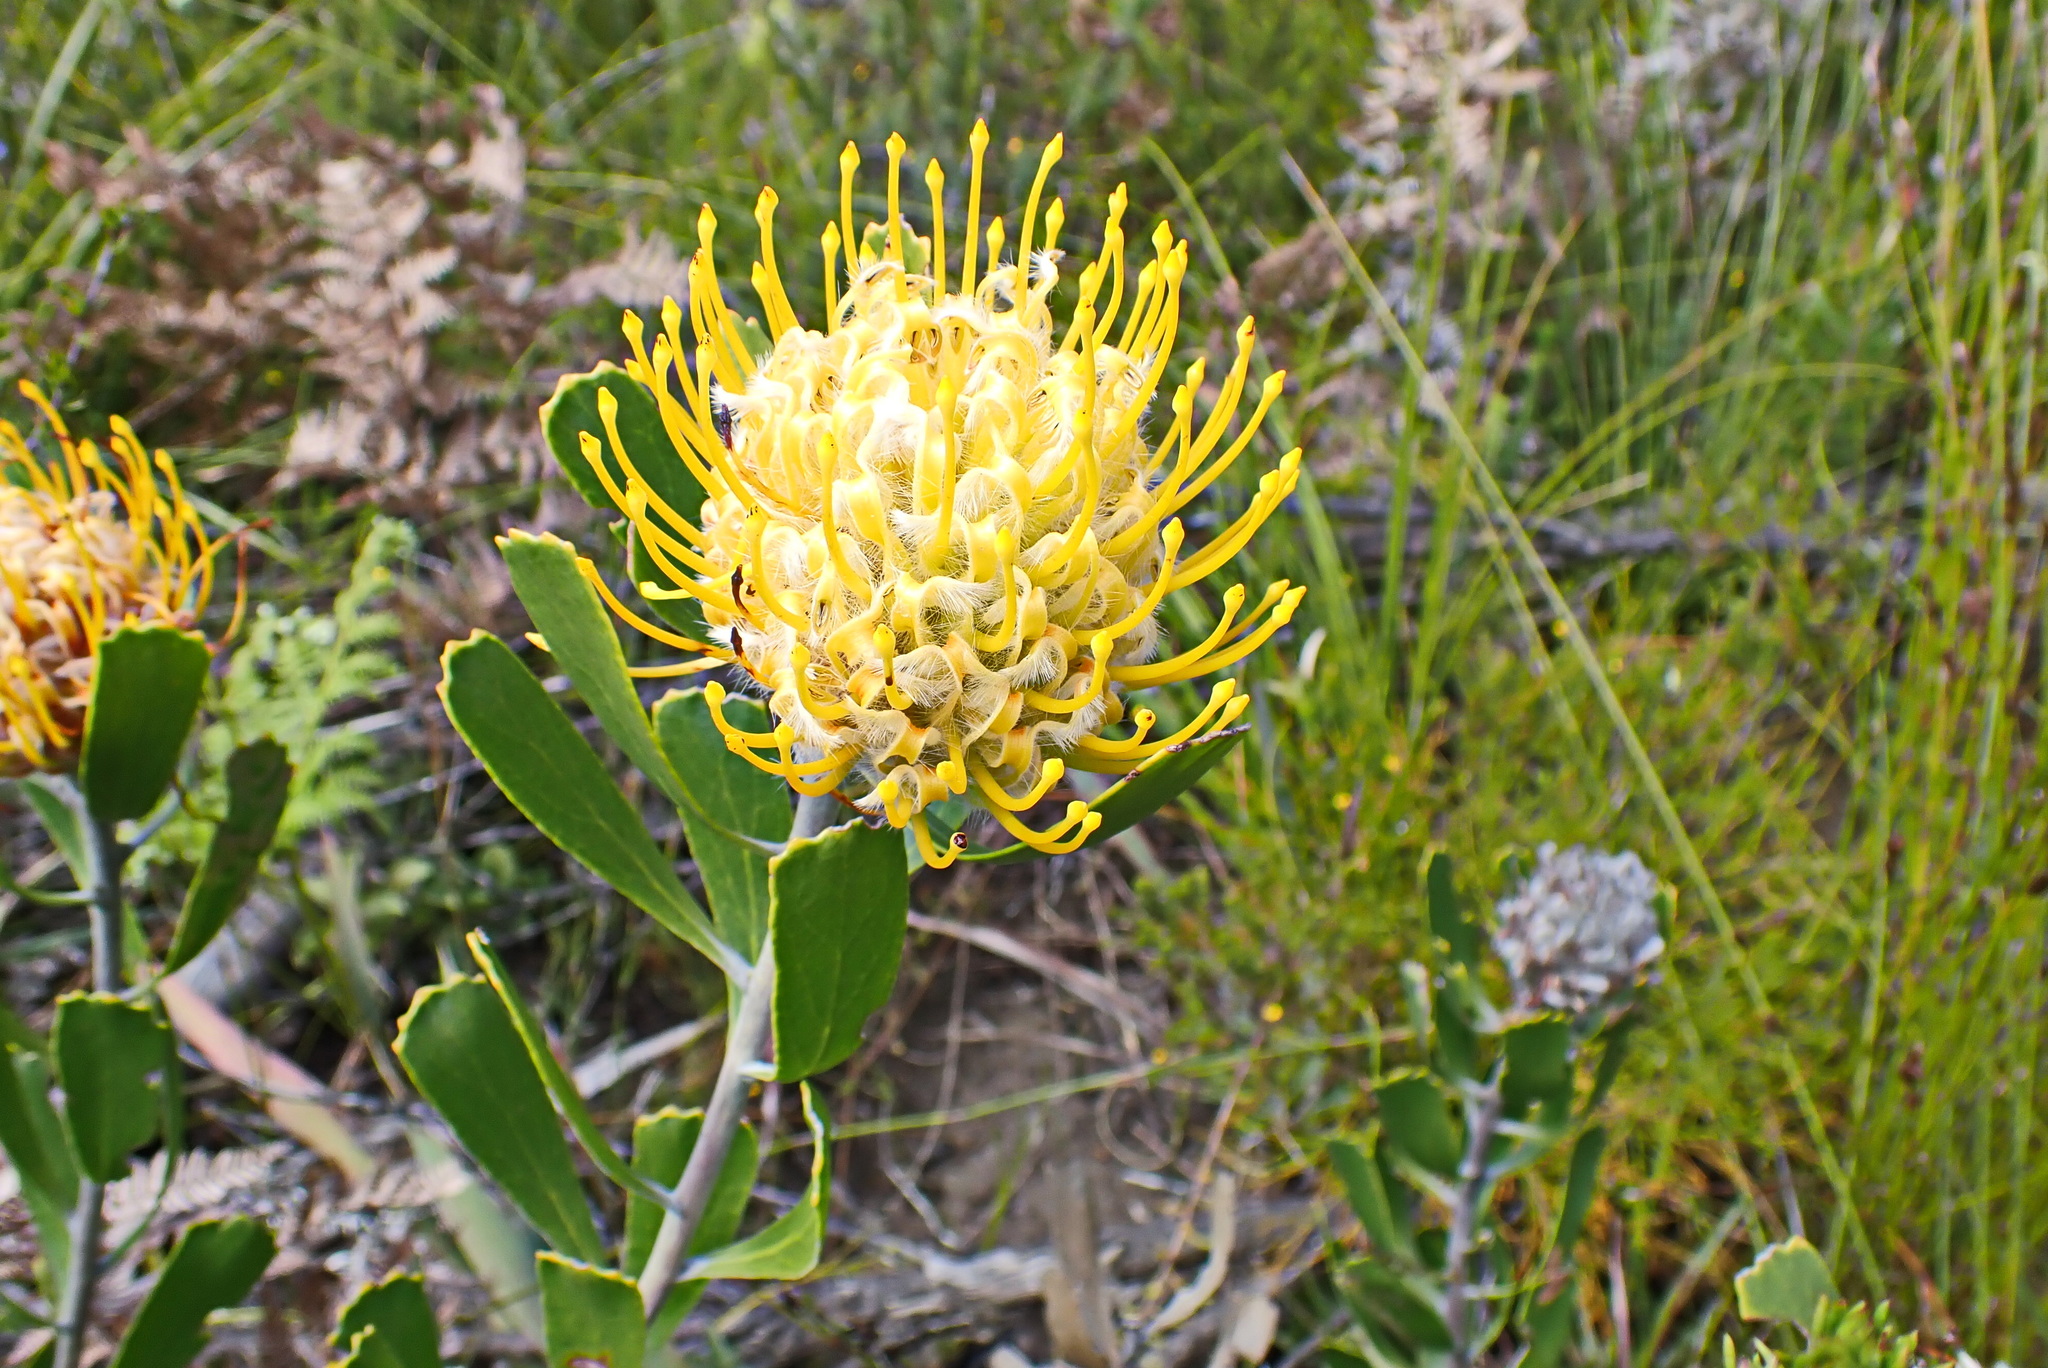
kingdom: Plantae
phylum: Tracheophyta
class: Magnoliopsida
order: Proteales
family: Proteaceae
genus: Leucospermum
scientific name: Leucospermum cuneiforme
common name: Common pincushion
